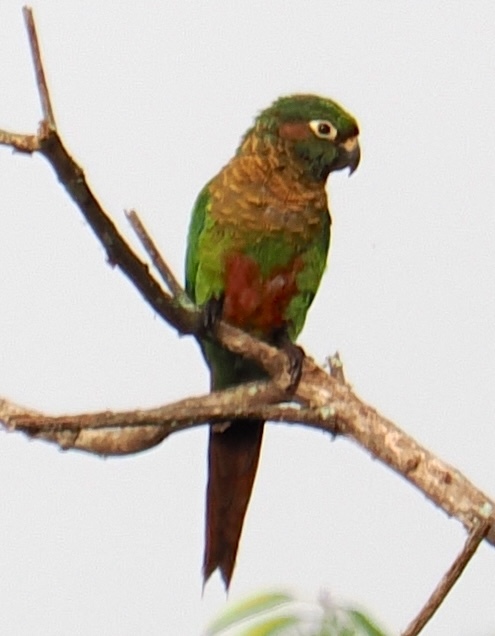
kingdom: Animalia
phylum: Chordata
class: Aves
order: Psittaciformes
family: Psittacidae
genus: Pyrrhura
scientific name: Pyrrhura frontalis
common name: Maroon-bellied parakeet
